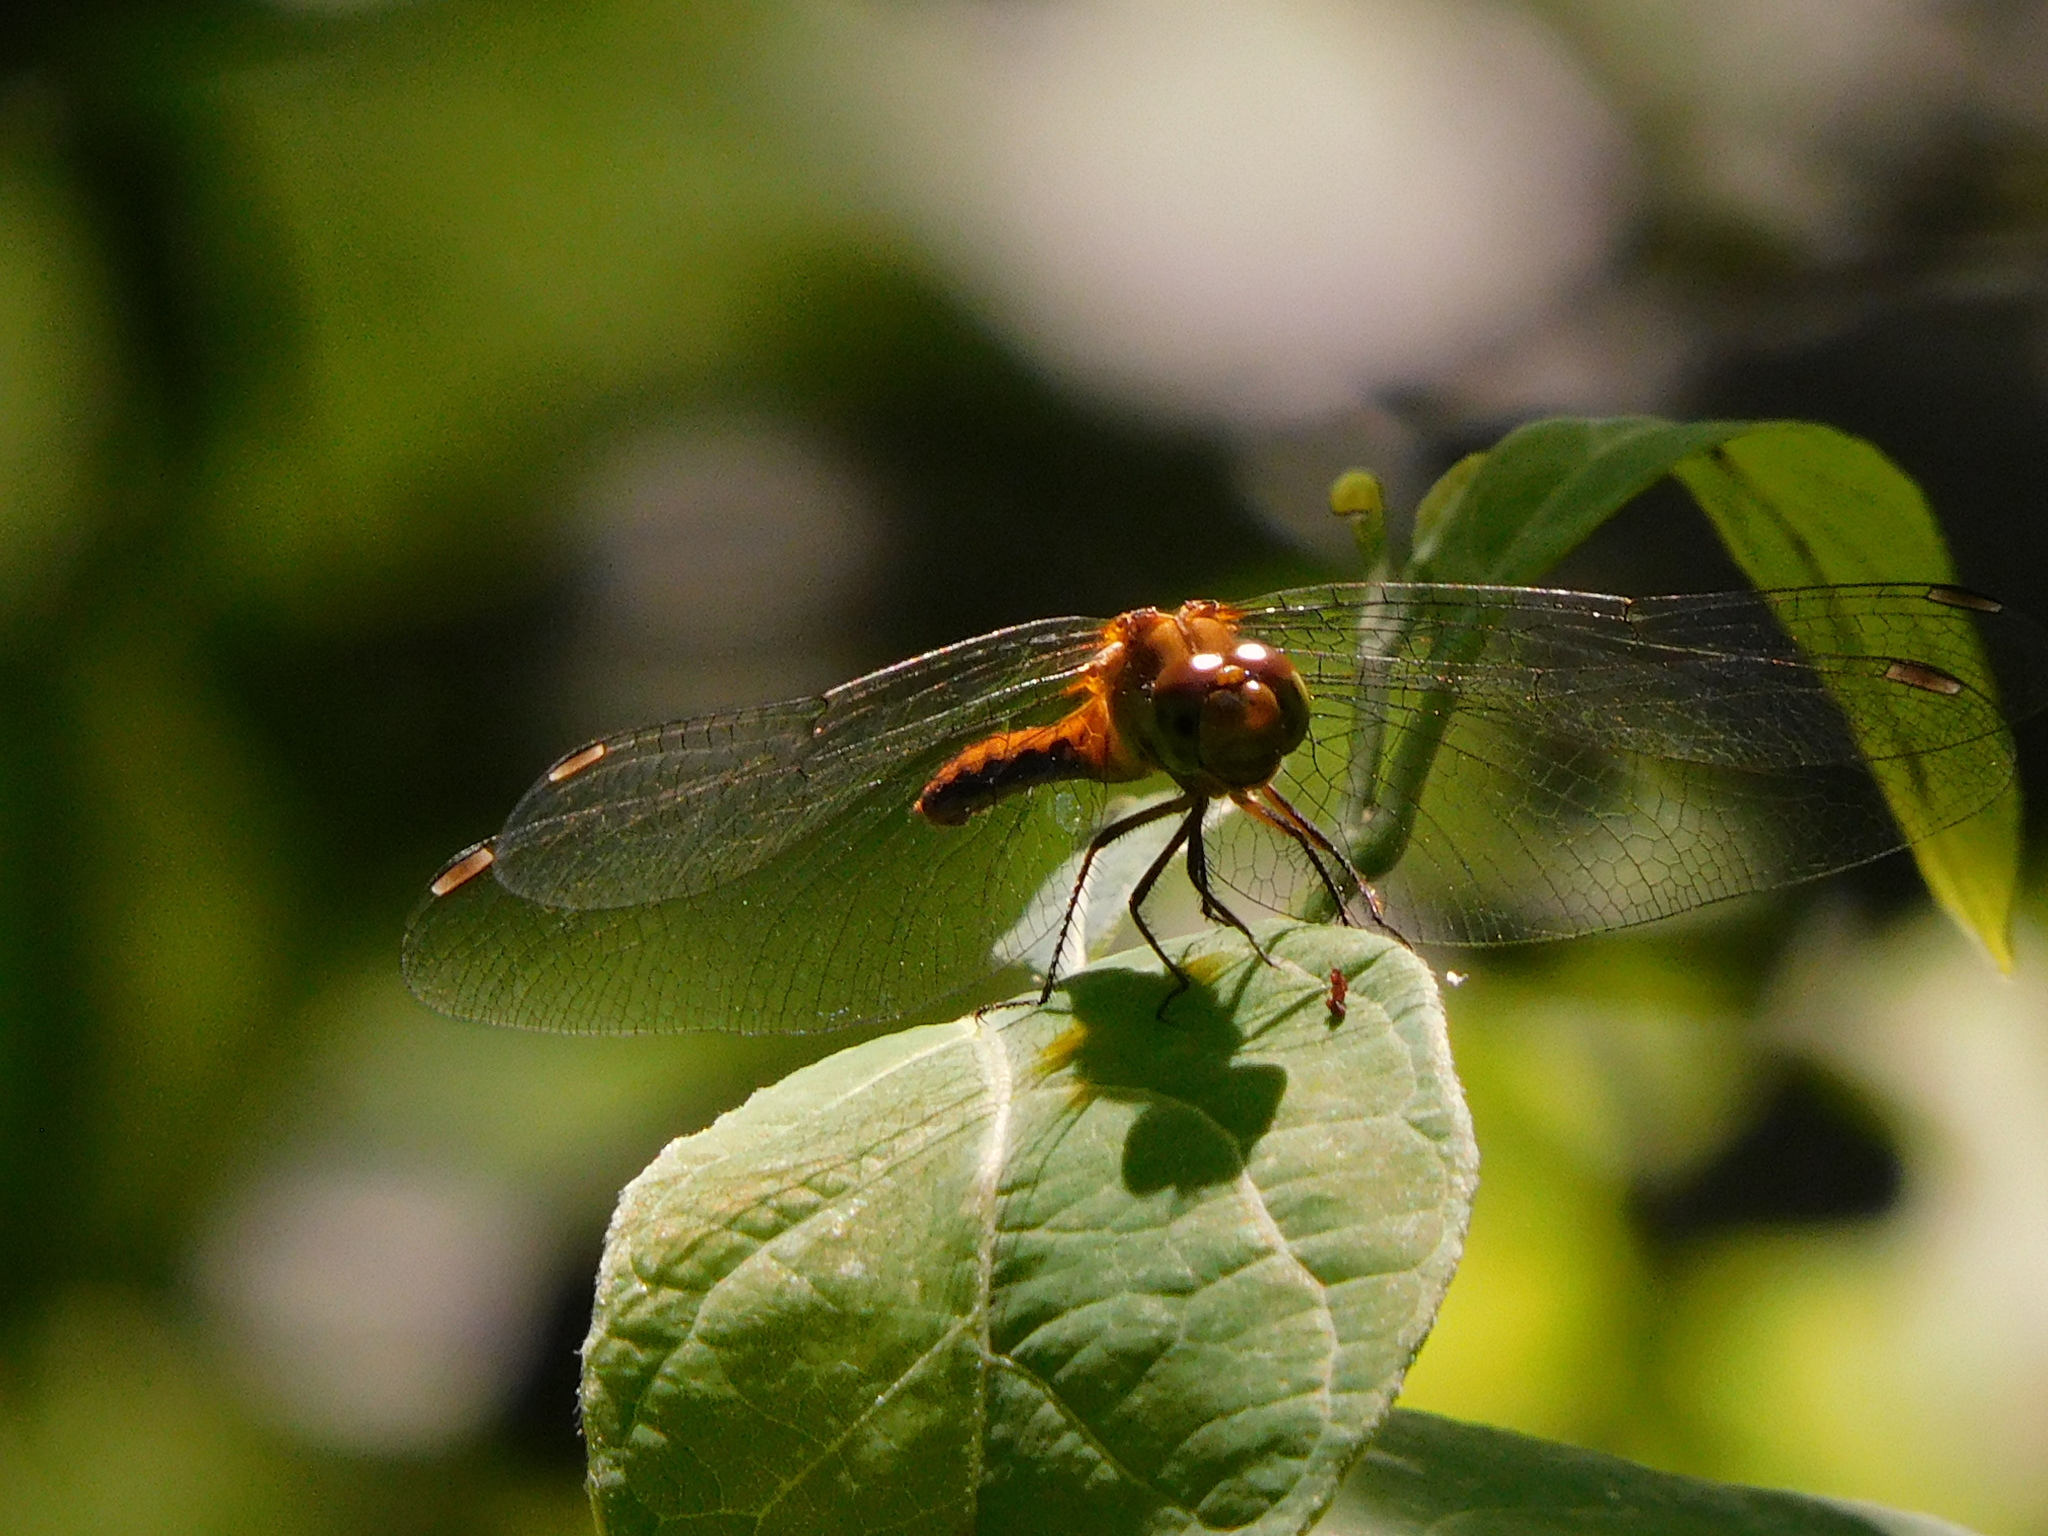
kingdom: Animalia
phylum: Arthropoda
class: Insecta
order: Odonata
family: Libellulidae
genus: Sympetrum
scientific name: Sympetrum
